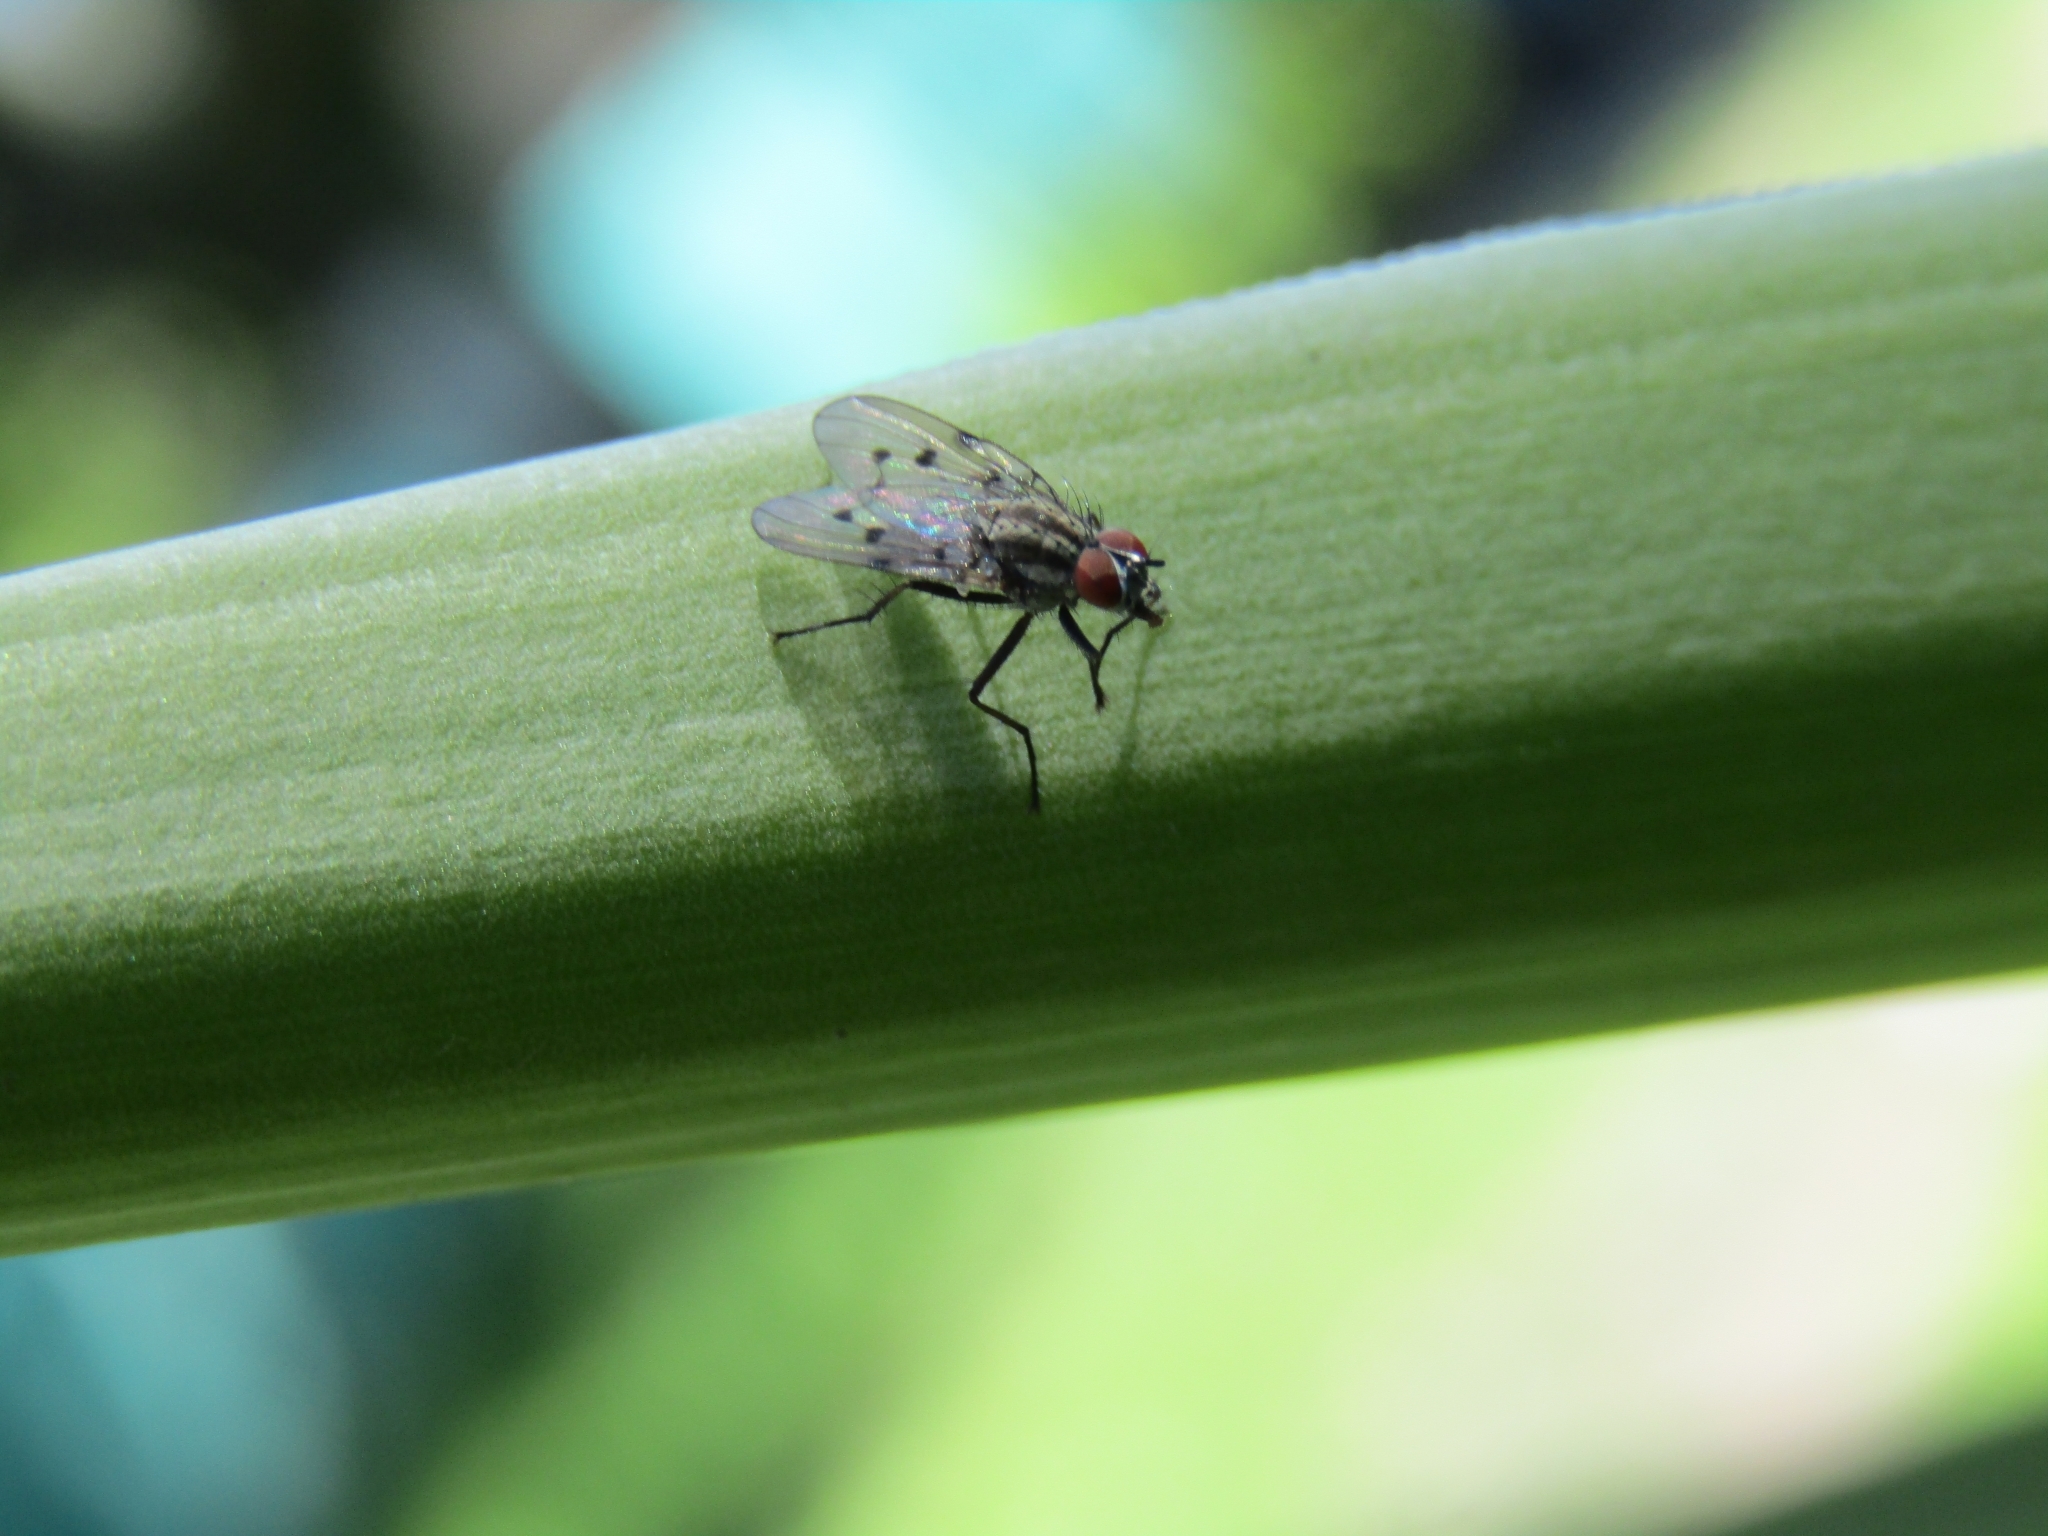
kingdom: Animalia
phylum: Arthropoda
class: Insecta
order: Diptera
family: Anthomyiidae
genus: Anthomyia
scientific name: Anthomyia punctipennis
